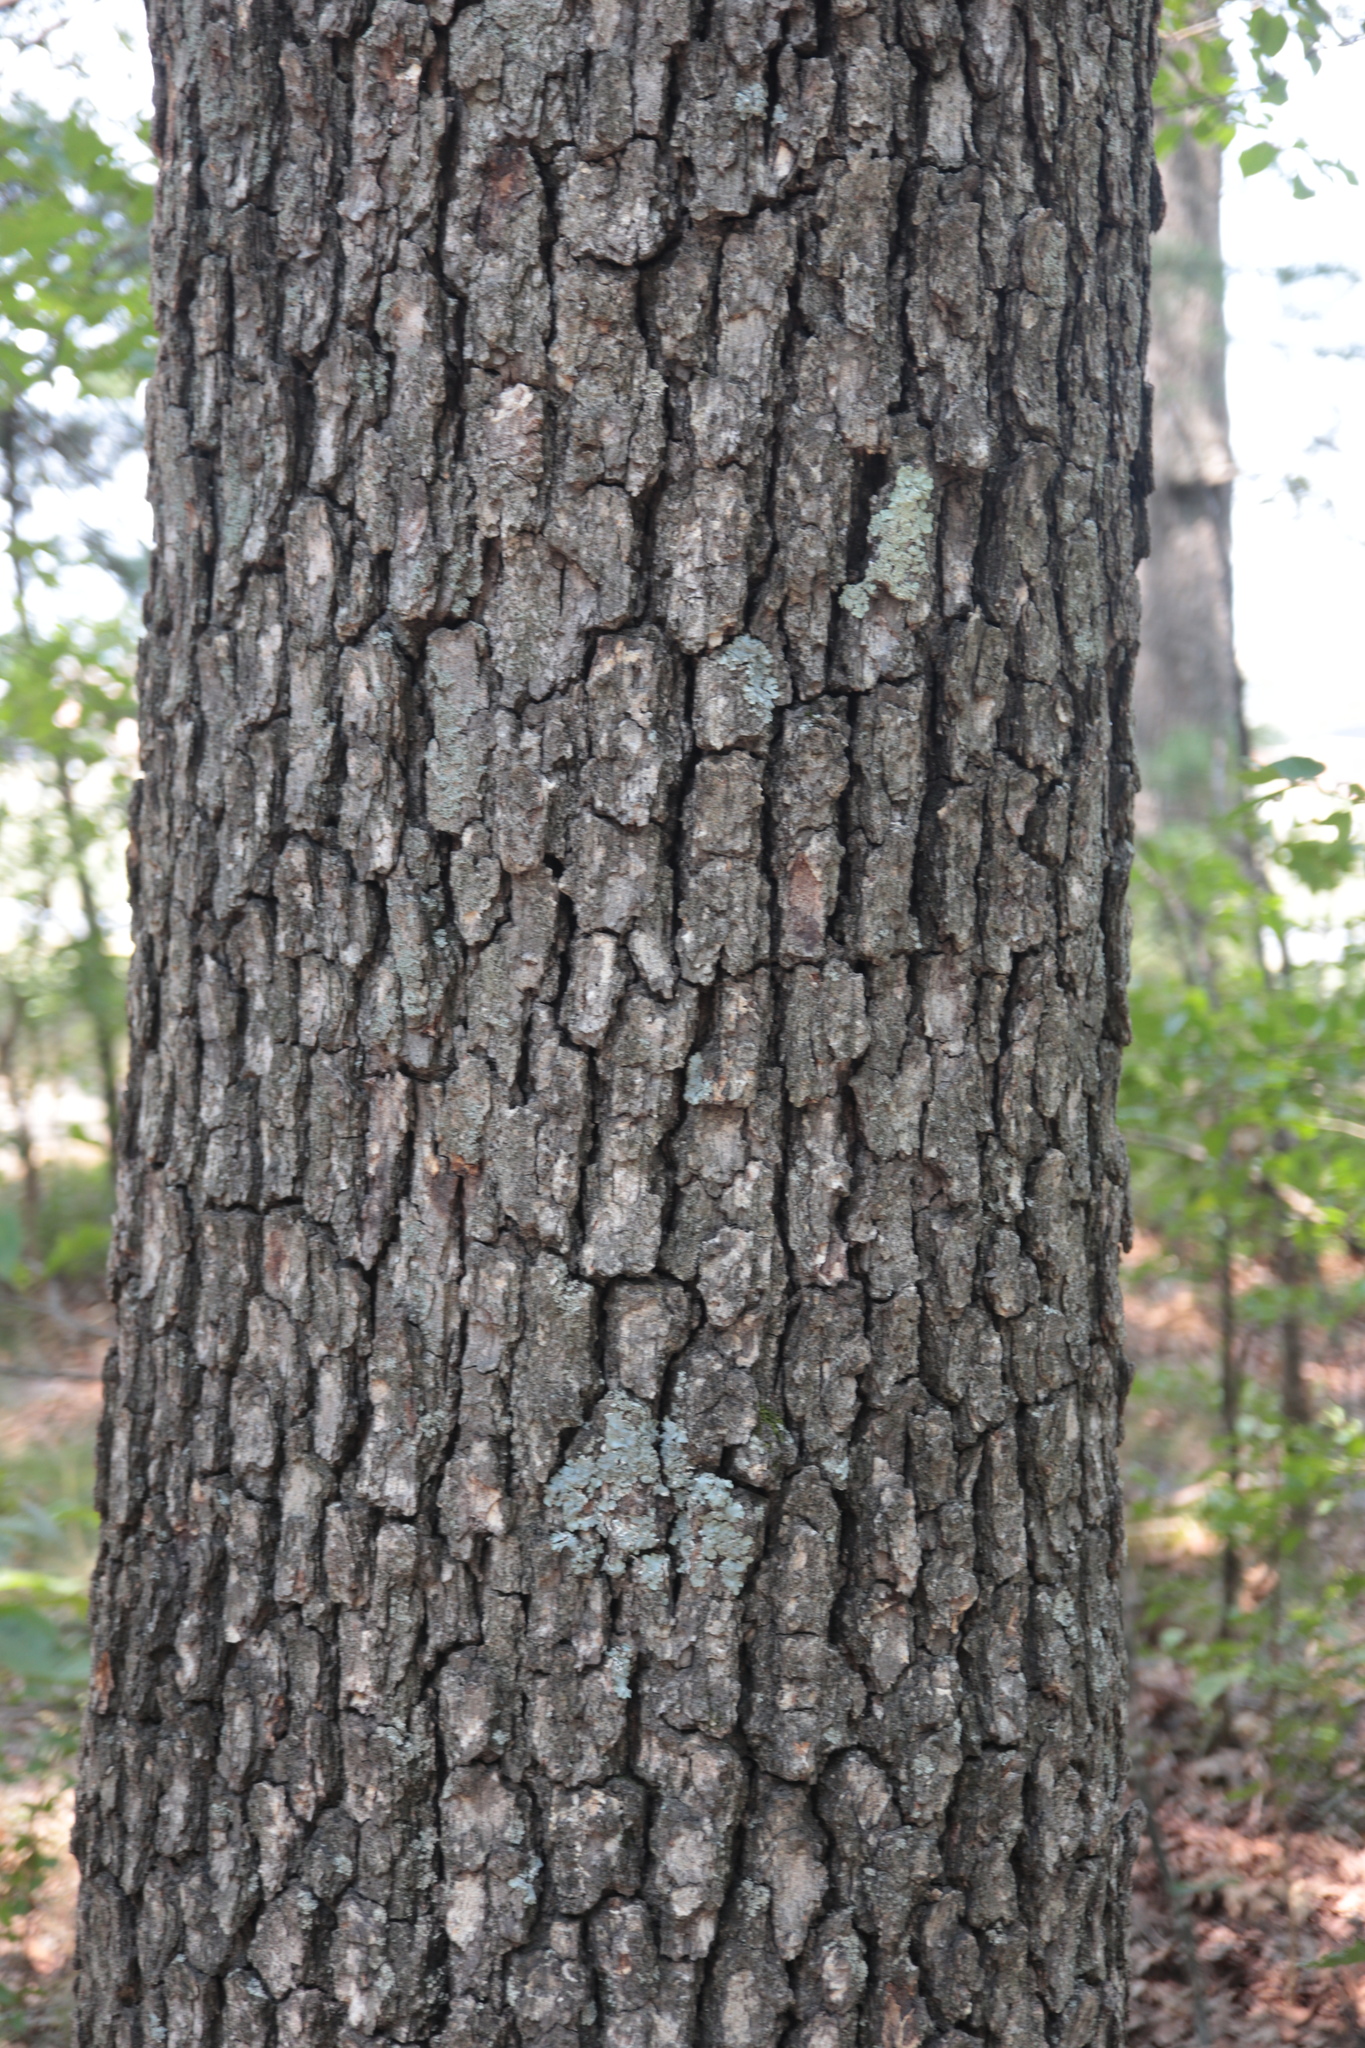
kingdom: Plantae
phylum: Tracheophyta
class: Magnoliopsida
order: Fagales
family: Fagaceae
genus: Quercus
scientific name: Quercus alba
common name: White oak
